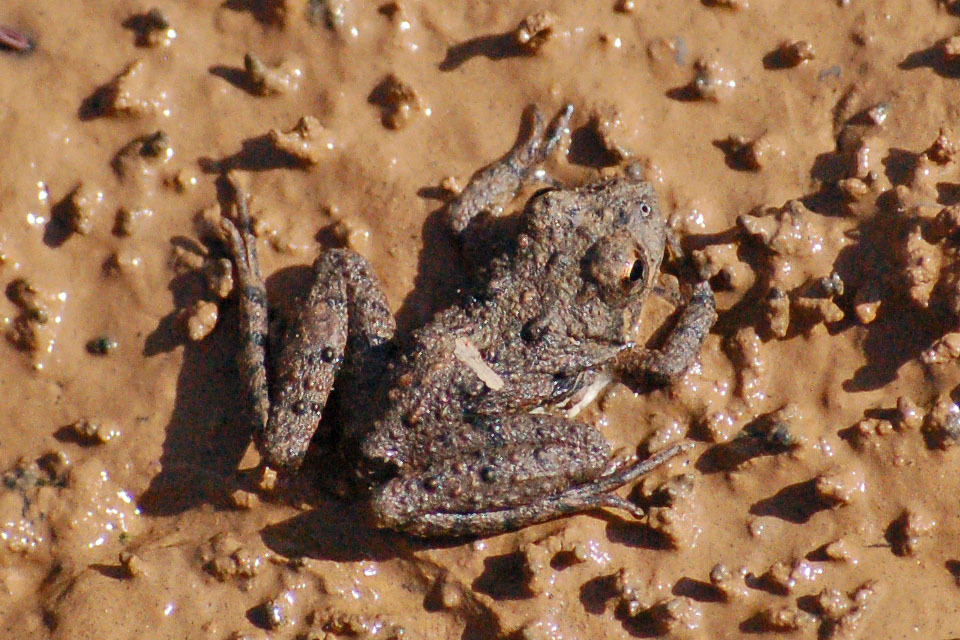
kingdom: Animalia
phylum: Chordata
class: Amphibia
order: Anura
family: Hylidae
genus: Acris
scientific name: Acris crepitans
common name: Northern cricket frog
